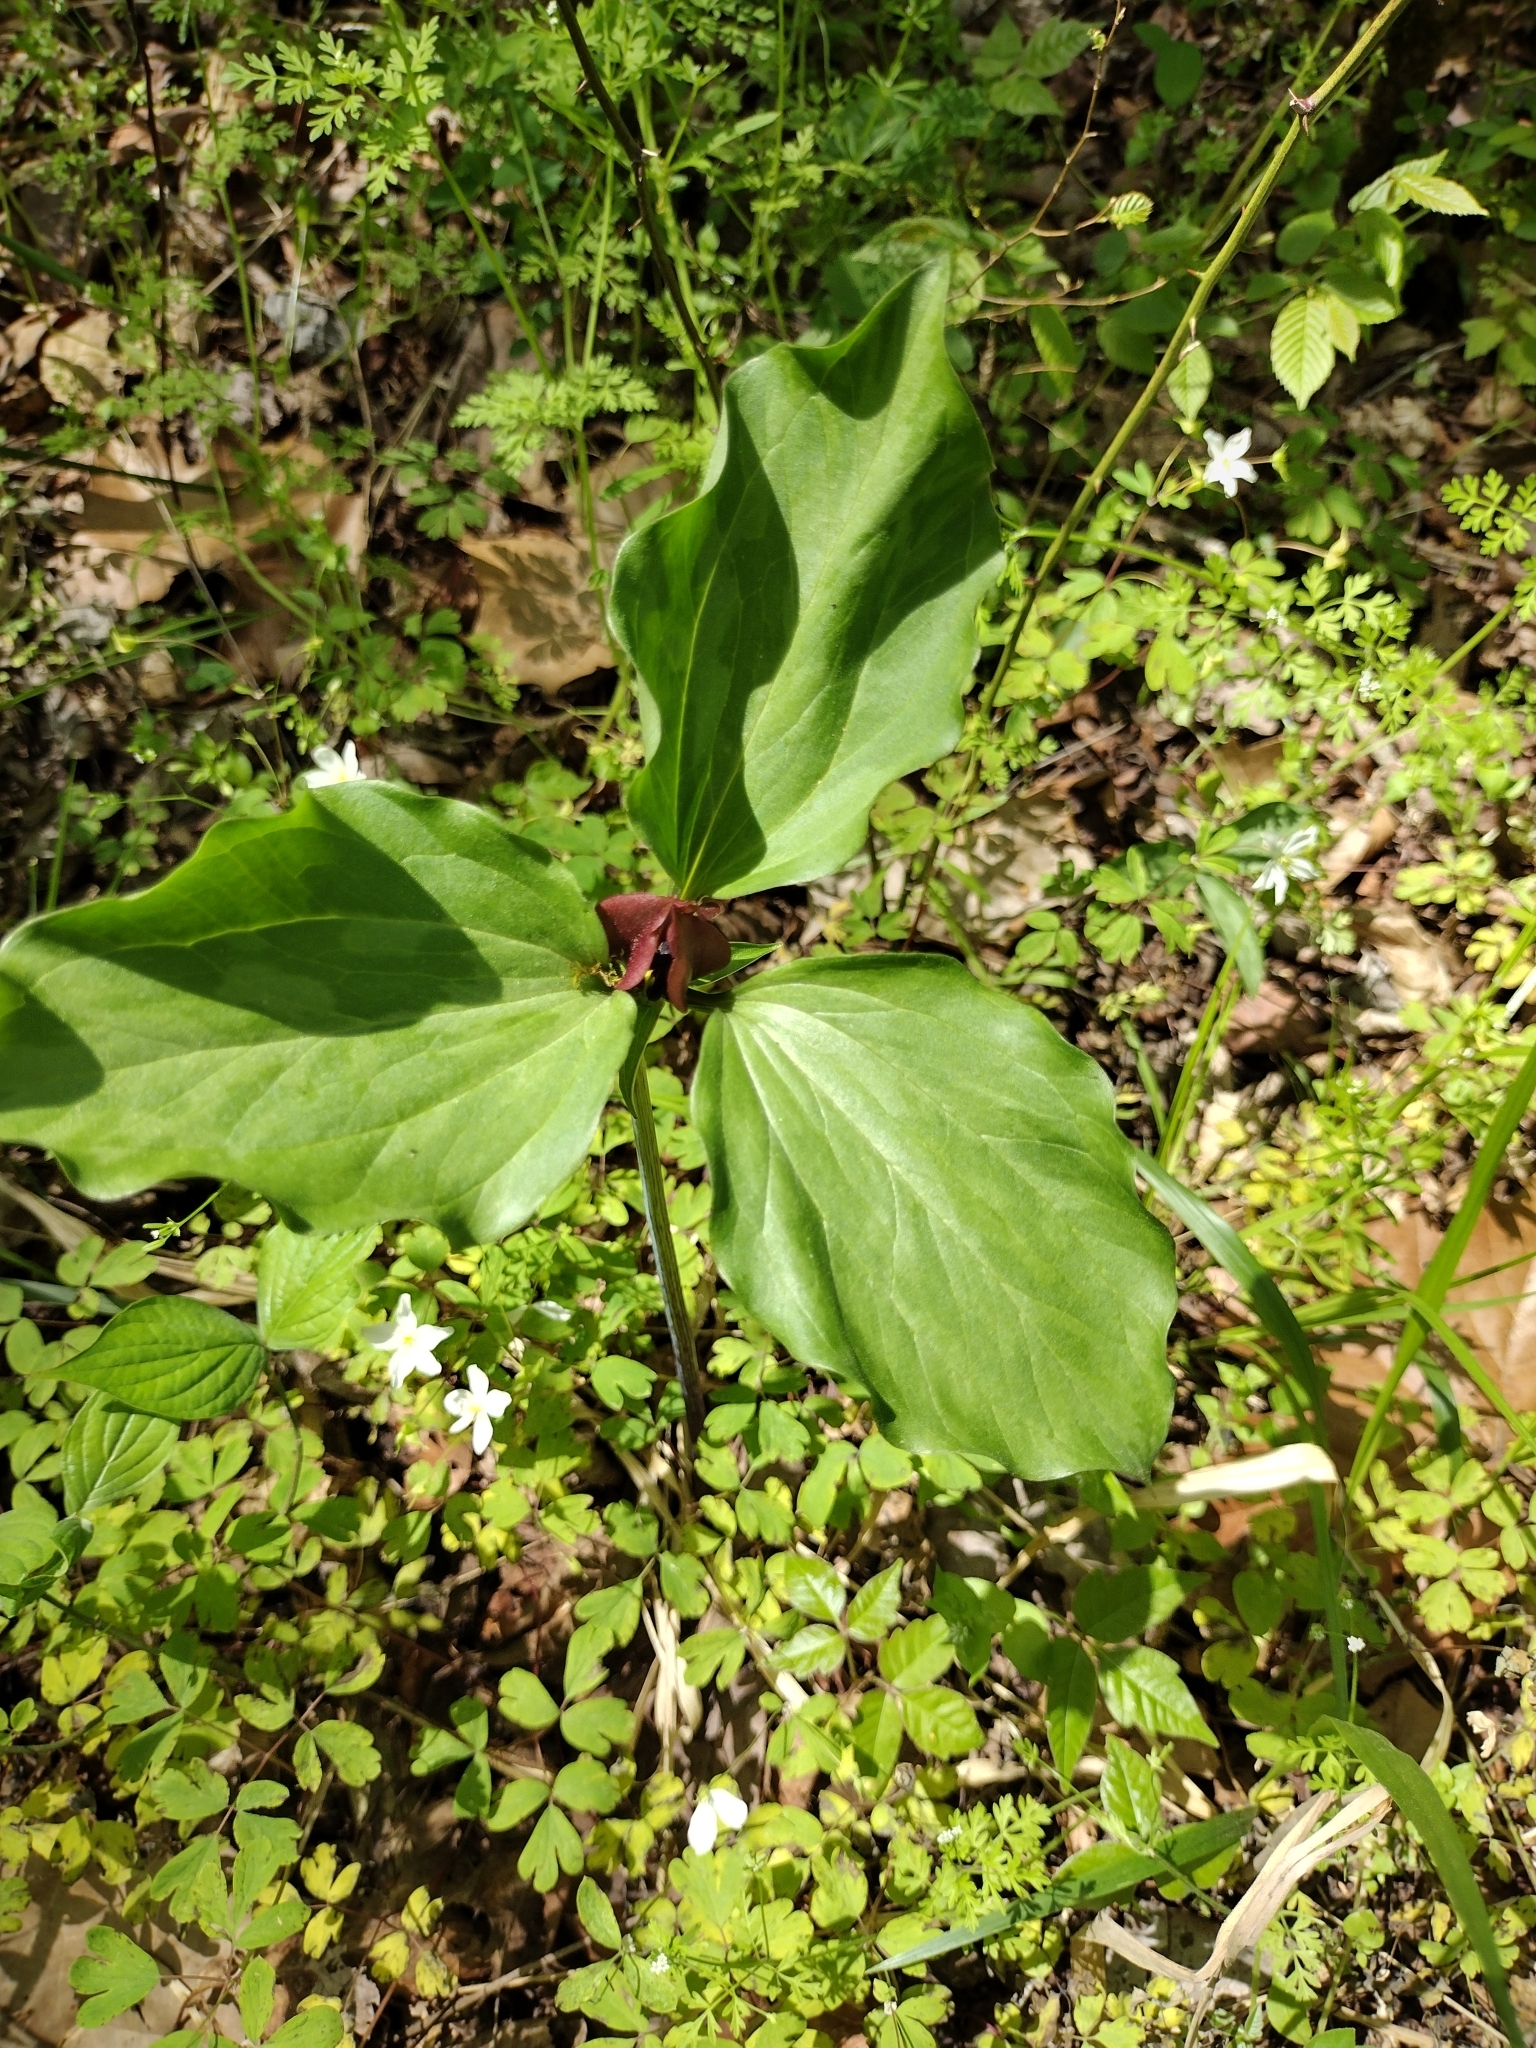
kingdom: Plantae
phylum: Tracheophyta
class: Liliopsida
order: Liliales
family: Melanthiaceae
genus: Trillium
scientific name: Trillium recurvatum
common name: Bloody butcher
